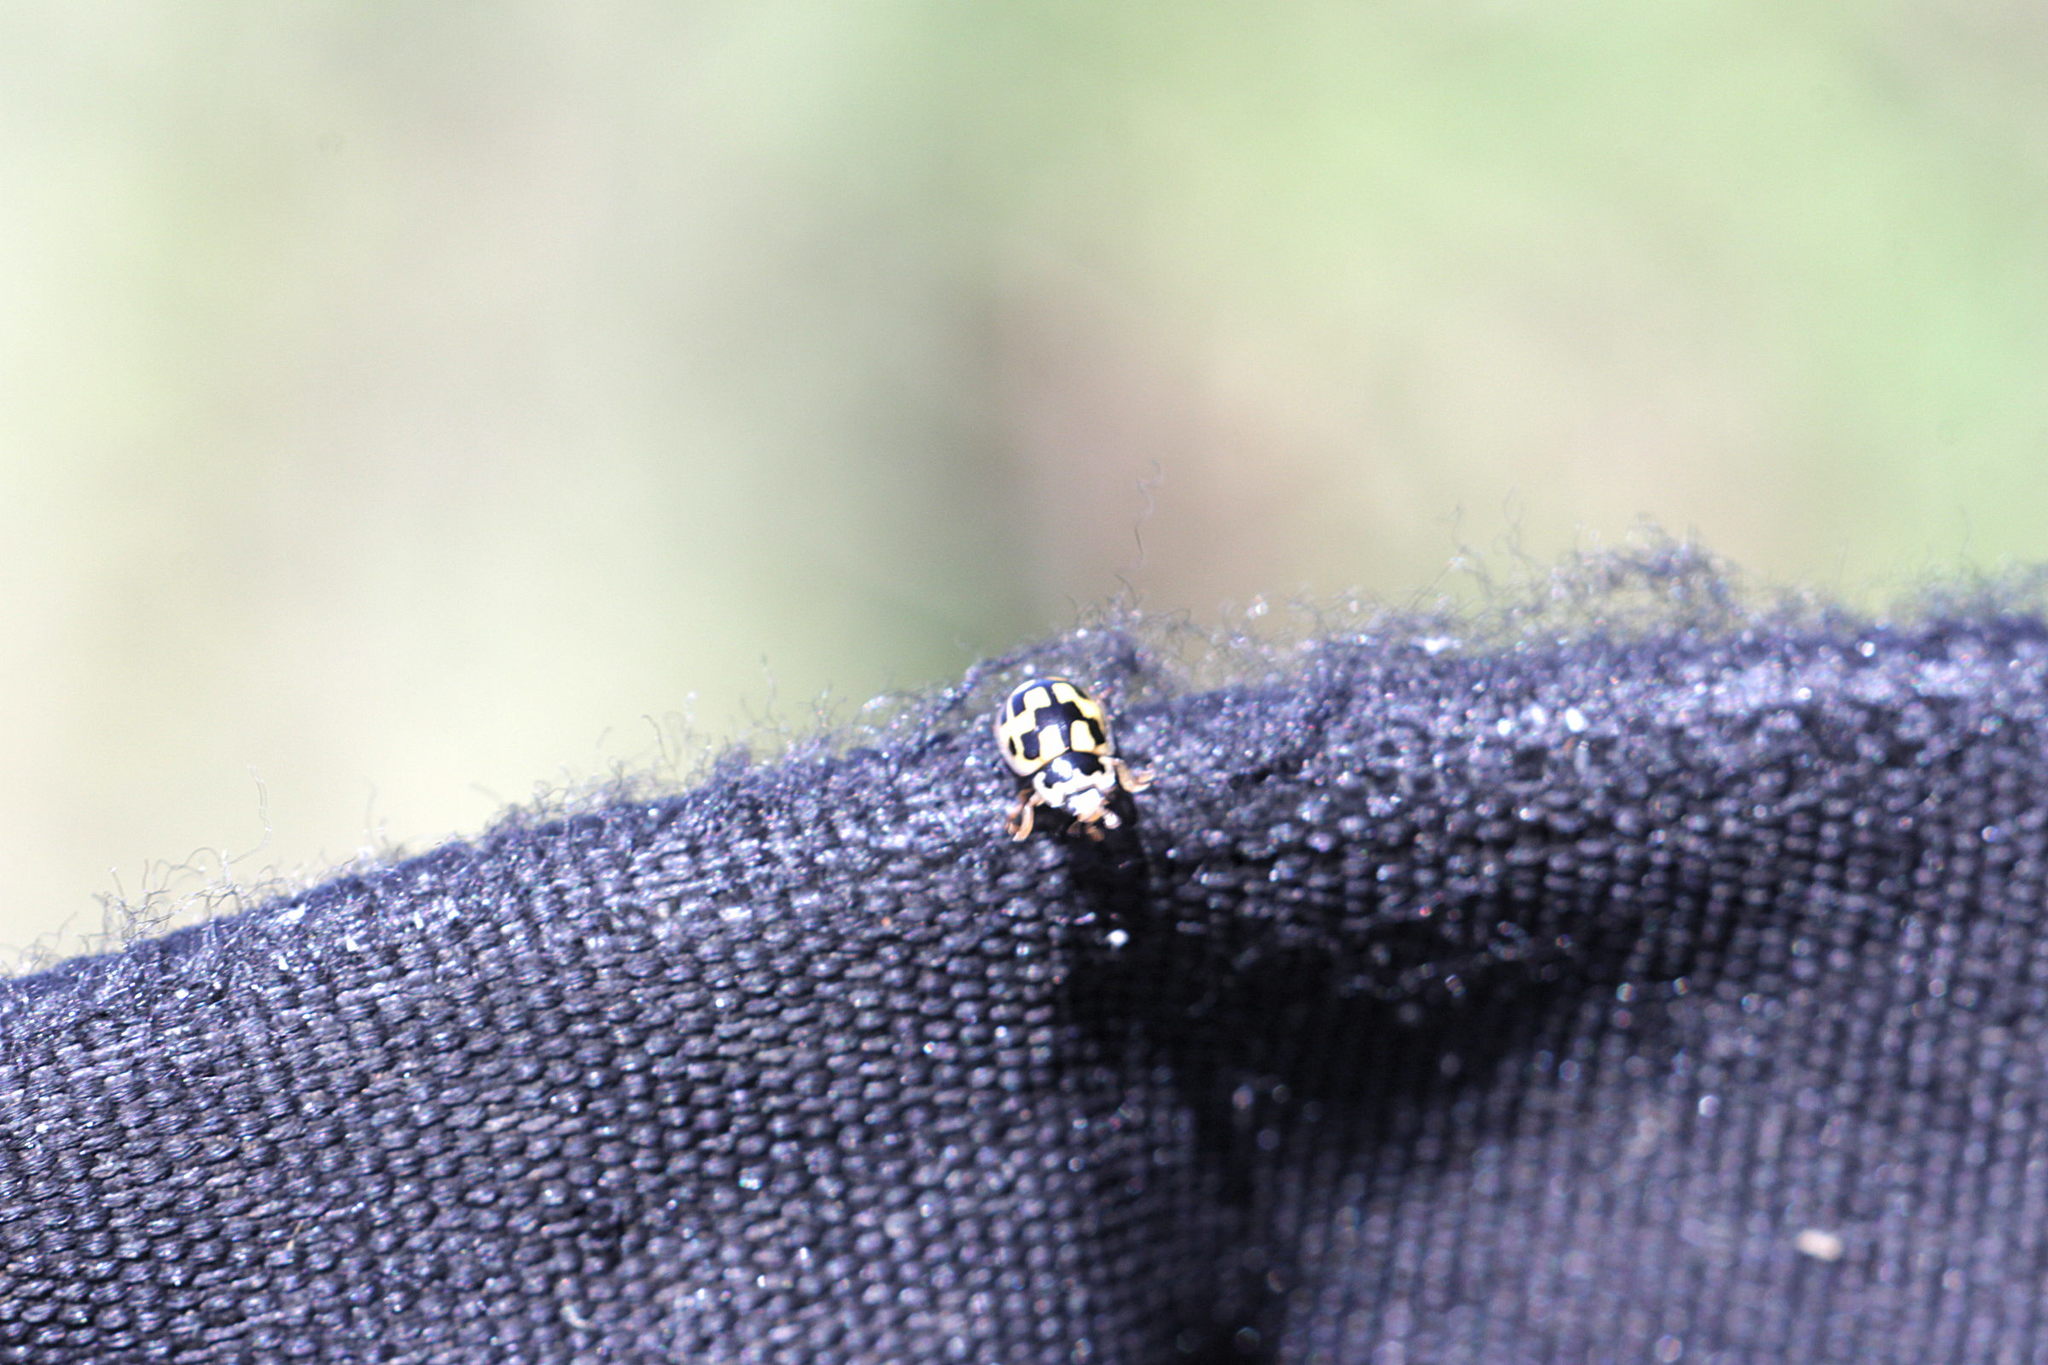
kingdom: Animalia
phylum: Arthropoda
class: Insecta
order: Coleoptera
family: Coccinellidae
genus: Propylaea
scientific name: Propylaea quatuordecimpunctata
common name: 14-spotted ladybird beetle
